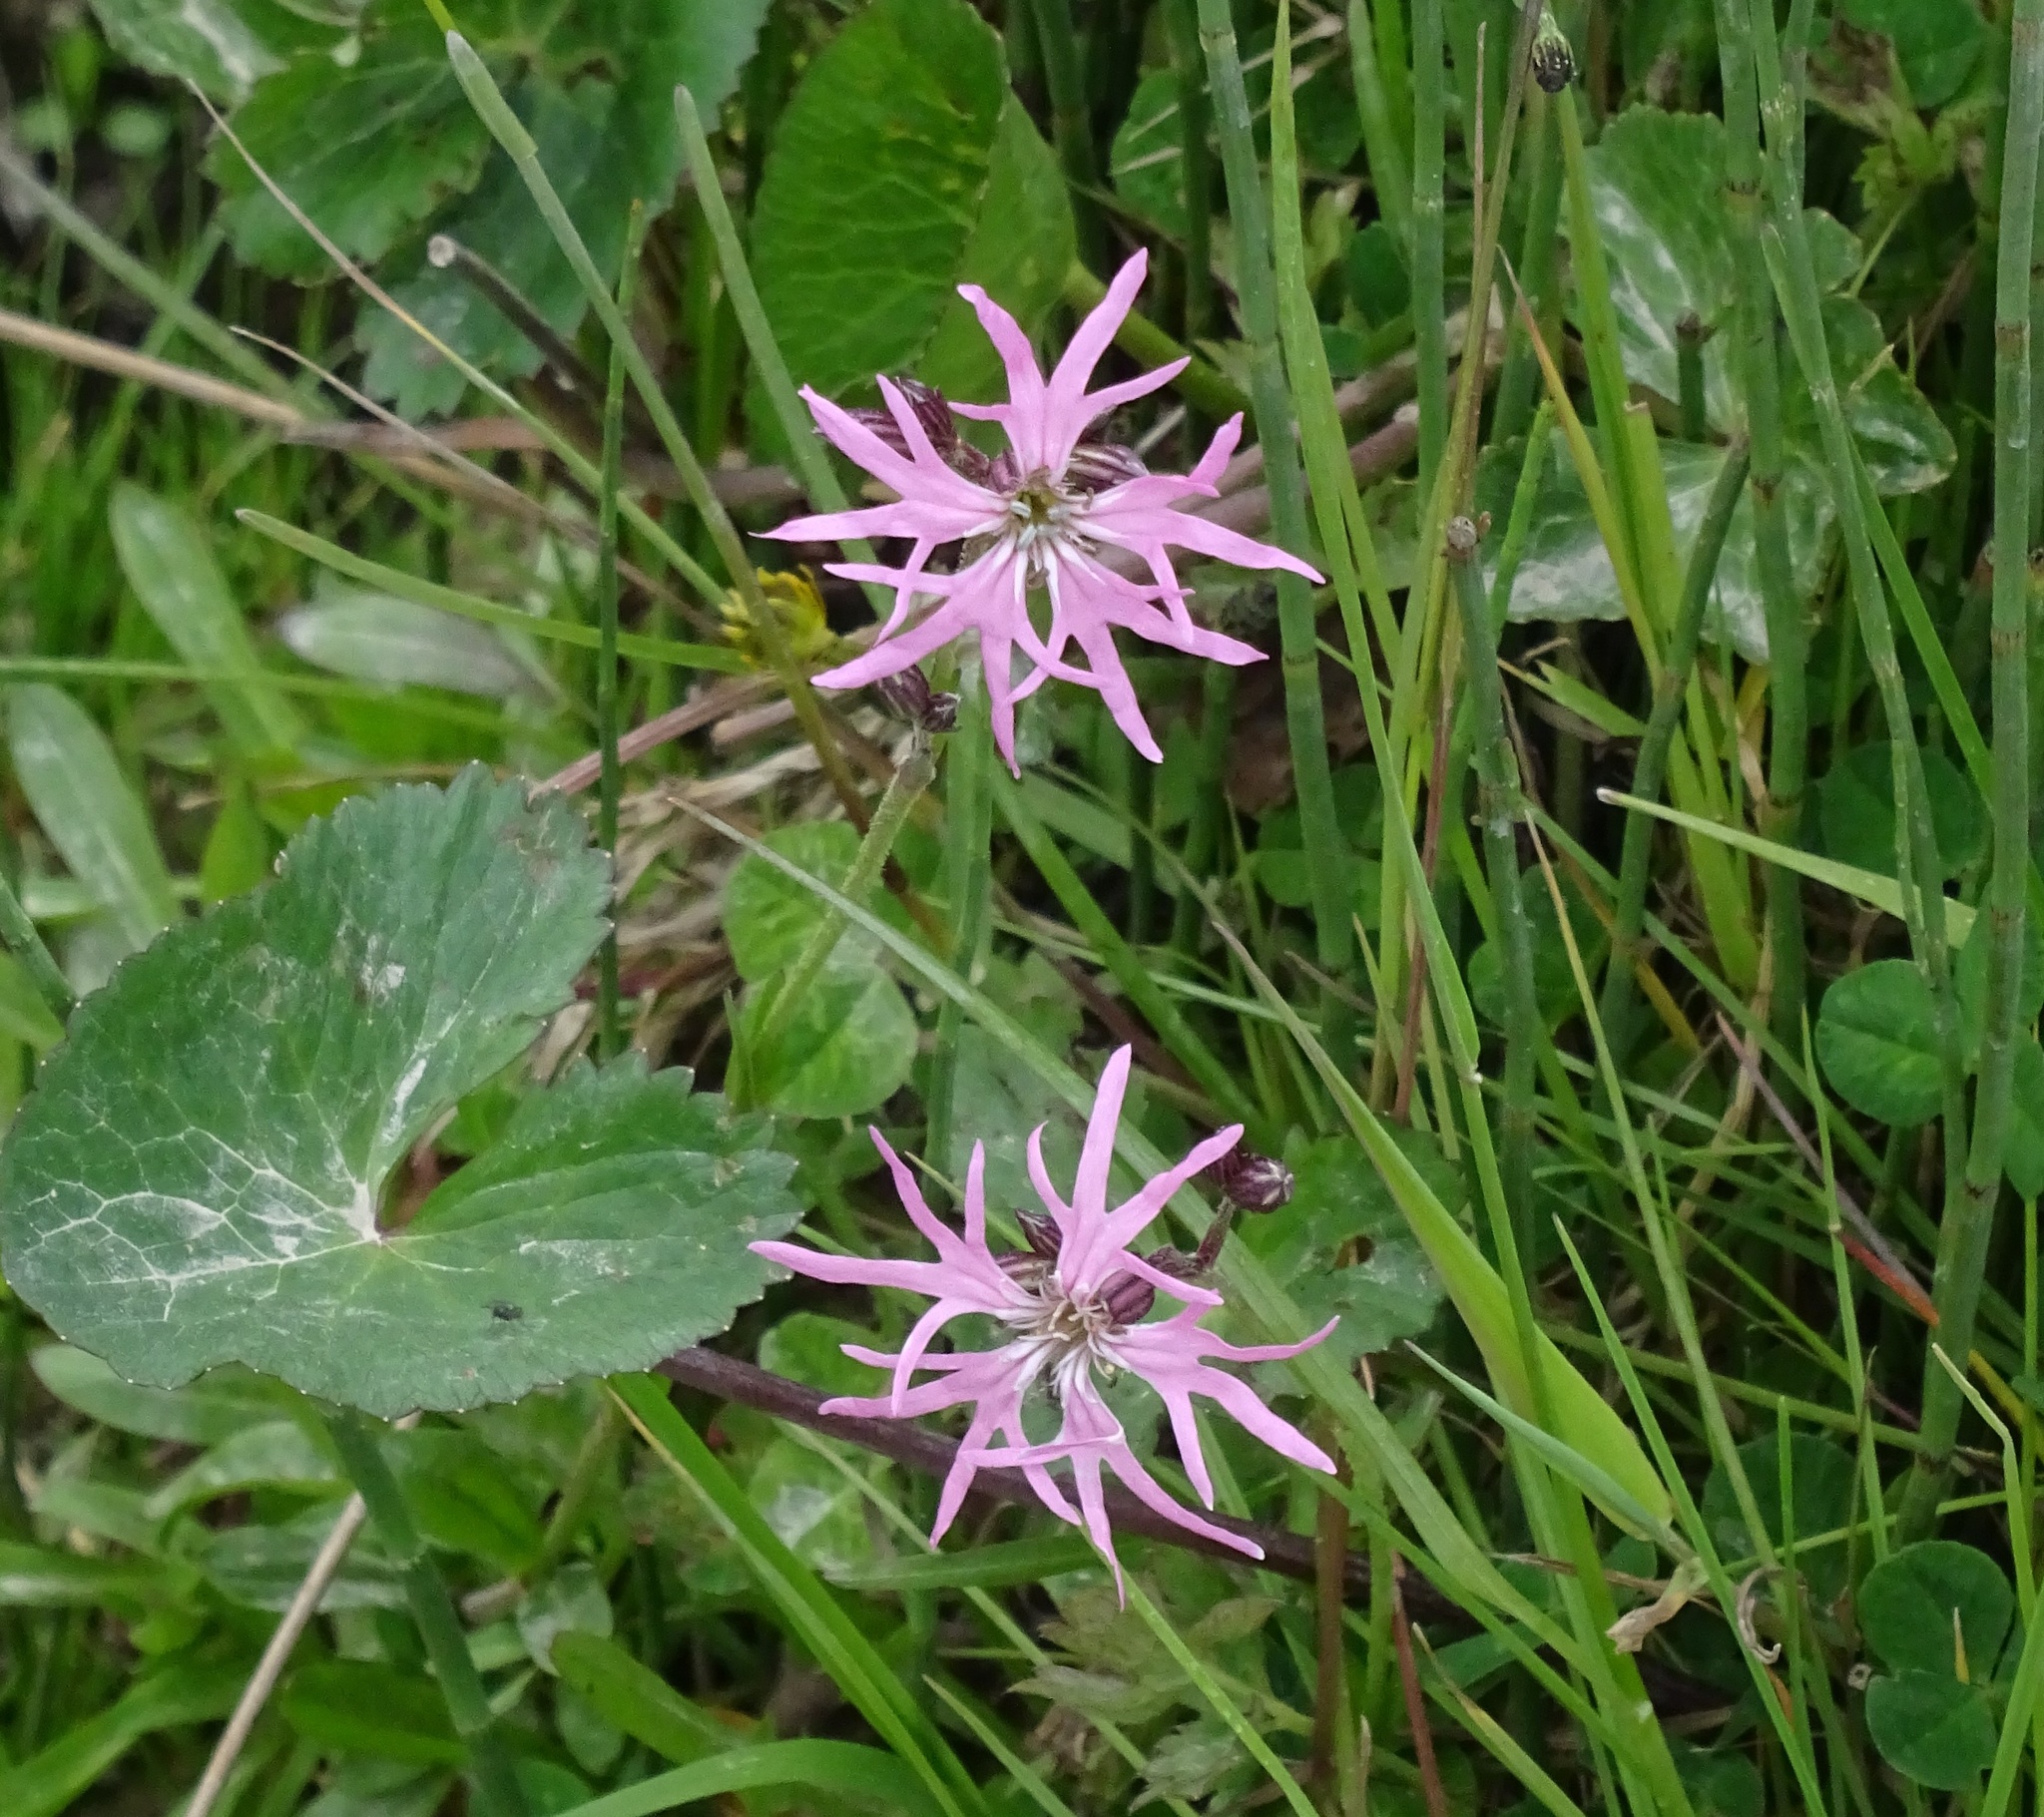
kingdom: Plantae
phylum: Tracheophyta
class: Magnoliopsida
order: Caryophyllales
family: Caryophyllaceae
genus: Silene
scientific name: Silene flos-cuculi
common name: Ragged-robin
